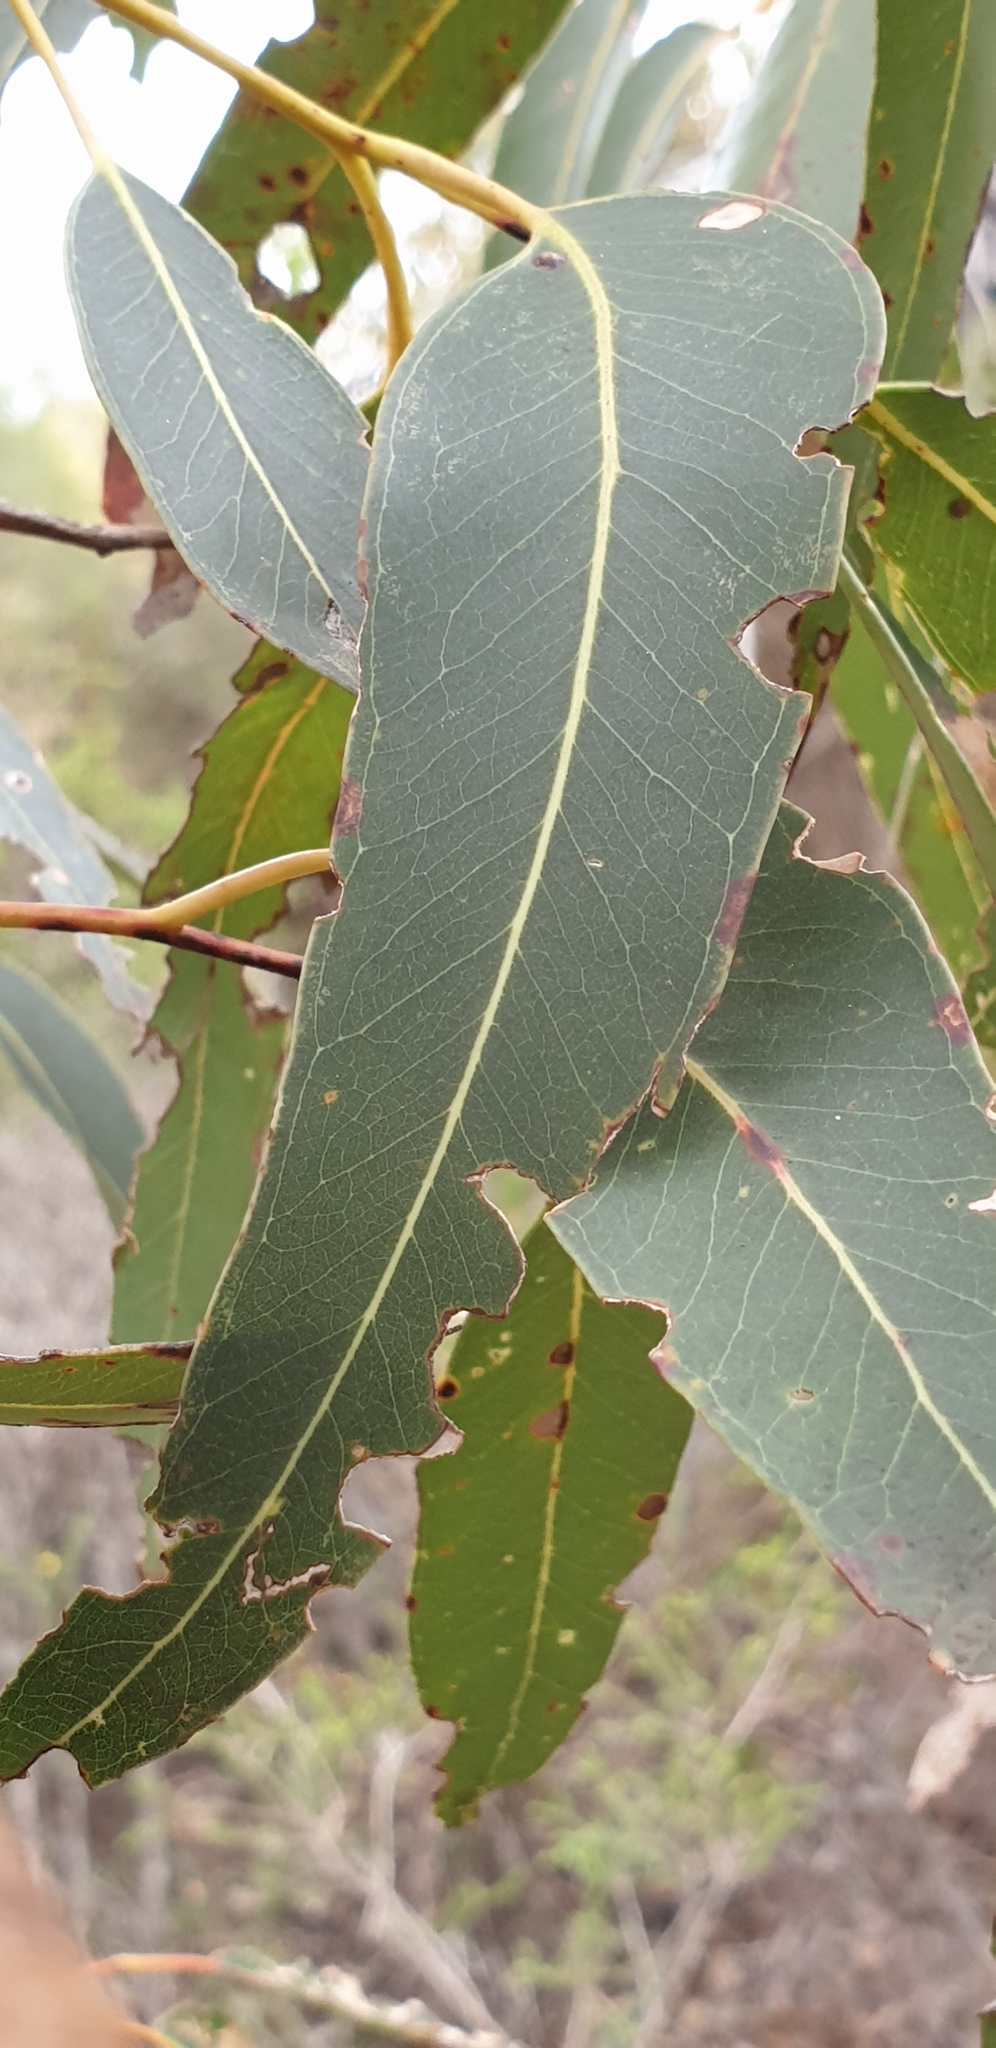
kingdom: Plantae
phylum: Tracheophyta
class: Magnoliopsida
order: Myrtales
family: Myrtaceae
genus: Eucalyptus
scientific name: Eucalyptus albopurpurea
